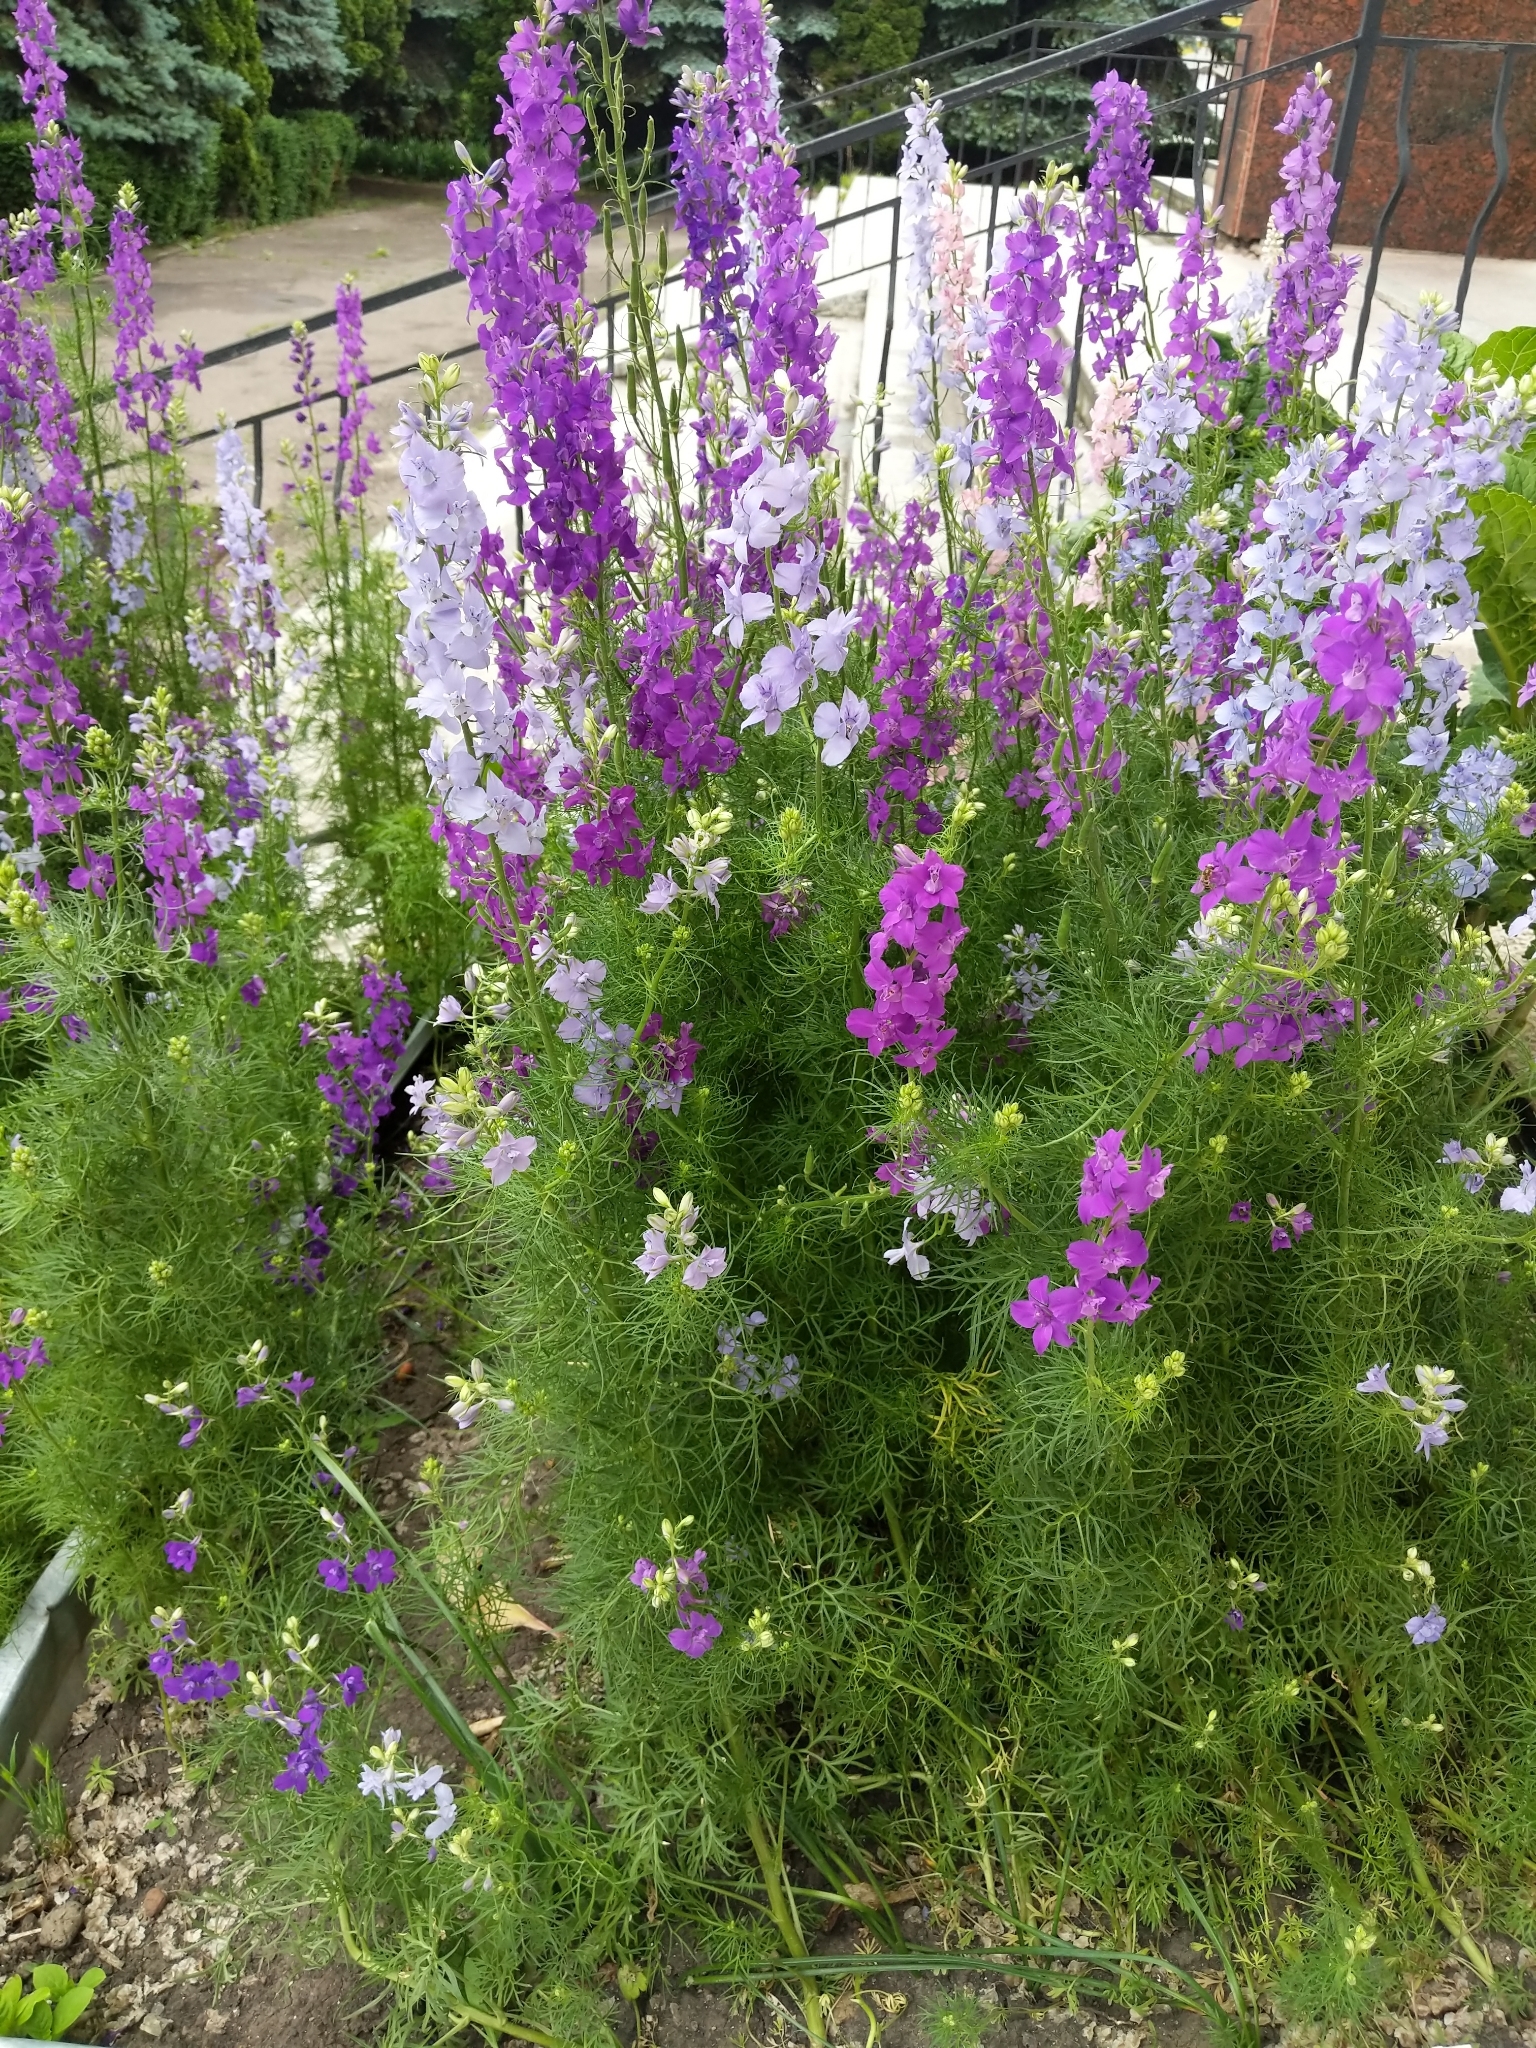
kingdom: Plantae
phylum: Tracheophyta
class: Magnoliopsida
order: Ranunculales
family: Ranunculaceae
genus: Delphinium
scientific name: Delphinium ajacis
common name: Doubtful knight's-spur
